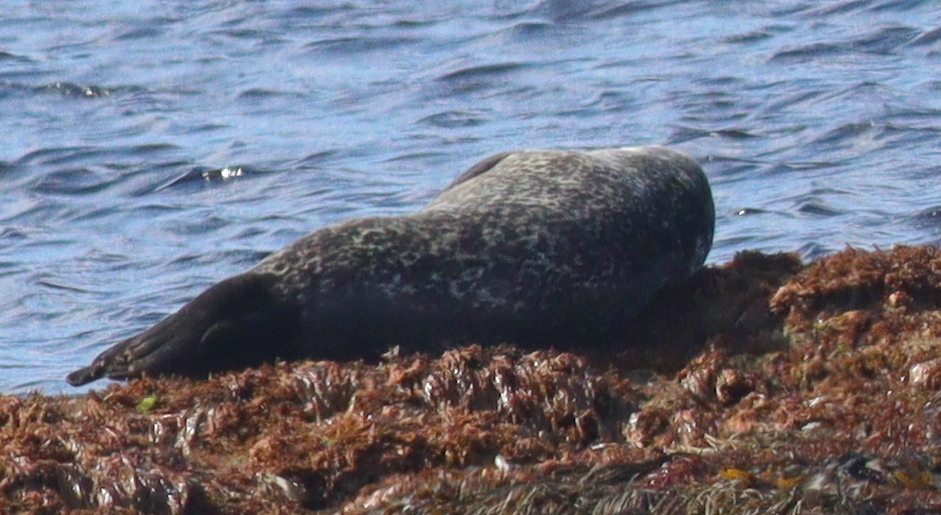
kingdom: Animalia
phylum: Chordata
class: Mammalia
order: Carnivora
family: Phocidae
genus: Phoca
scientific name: Phoca vitulina
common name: Harbor seal
